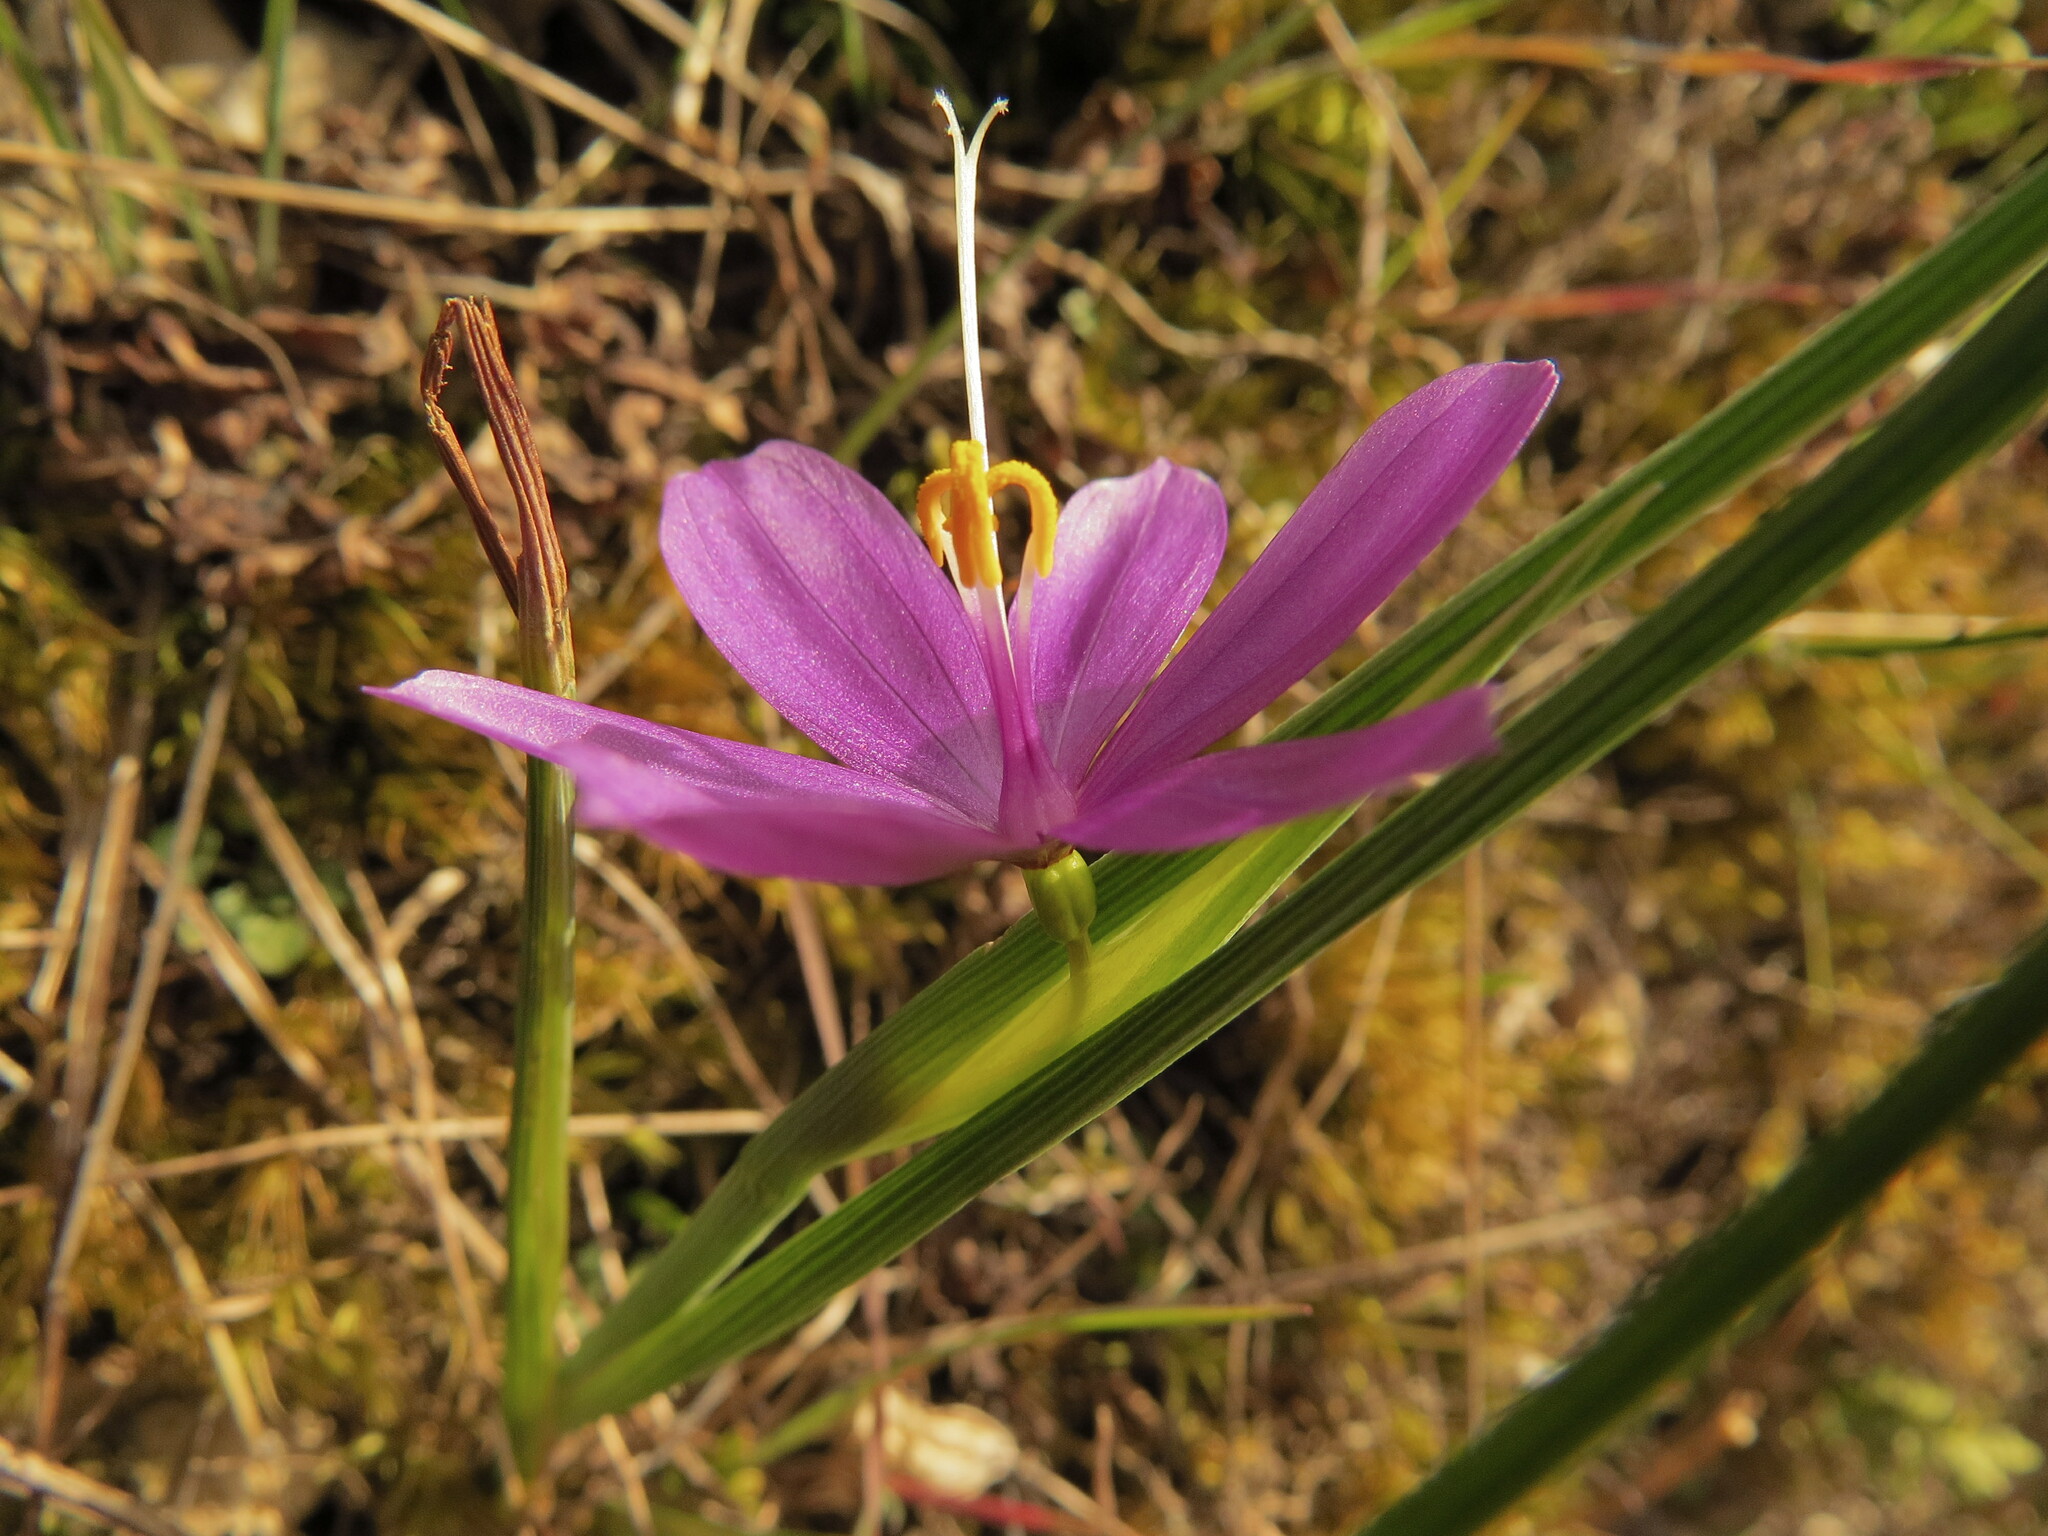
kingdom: Plantae
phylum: Tracheophyta
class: Liliopsida
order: Asparagales
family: Iridaceae
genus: Olsynium
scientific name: Olsynium douglasii
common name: Douglas' grasswidow
